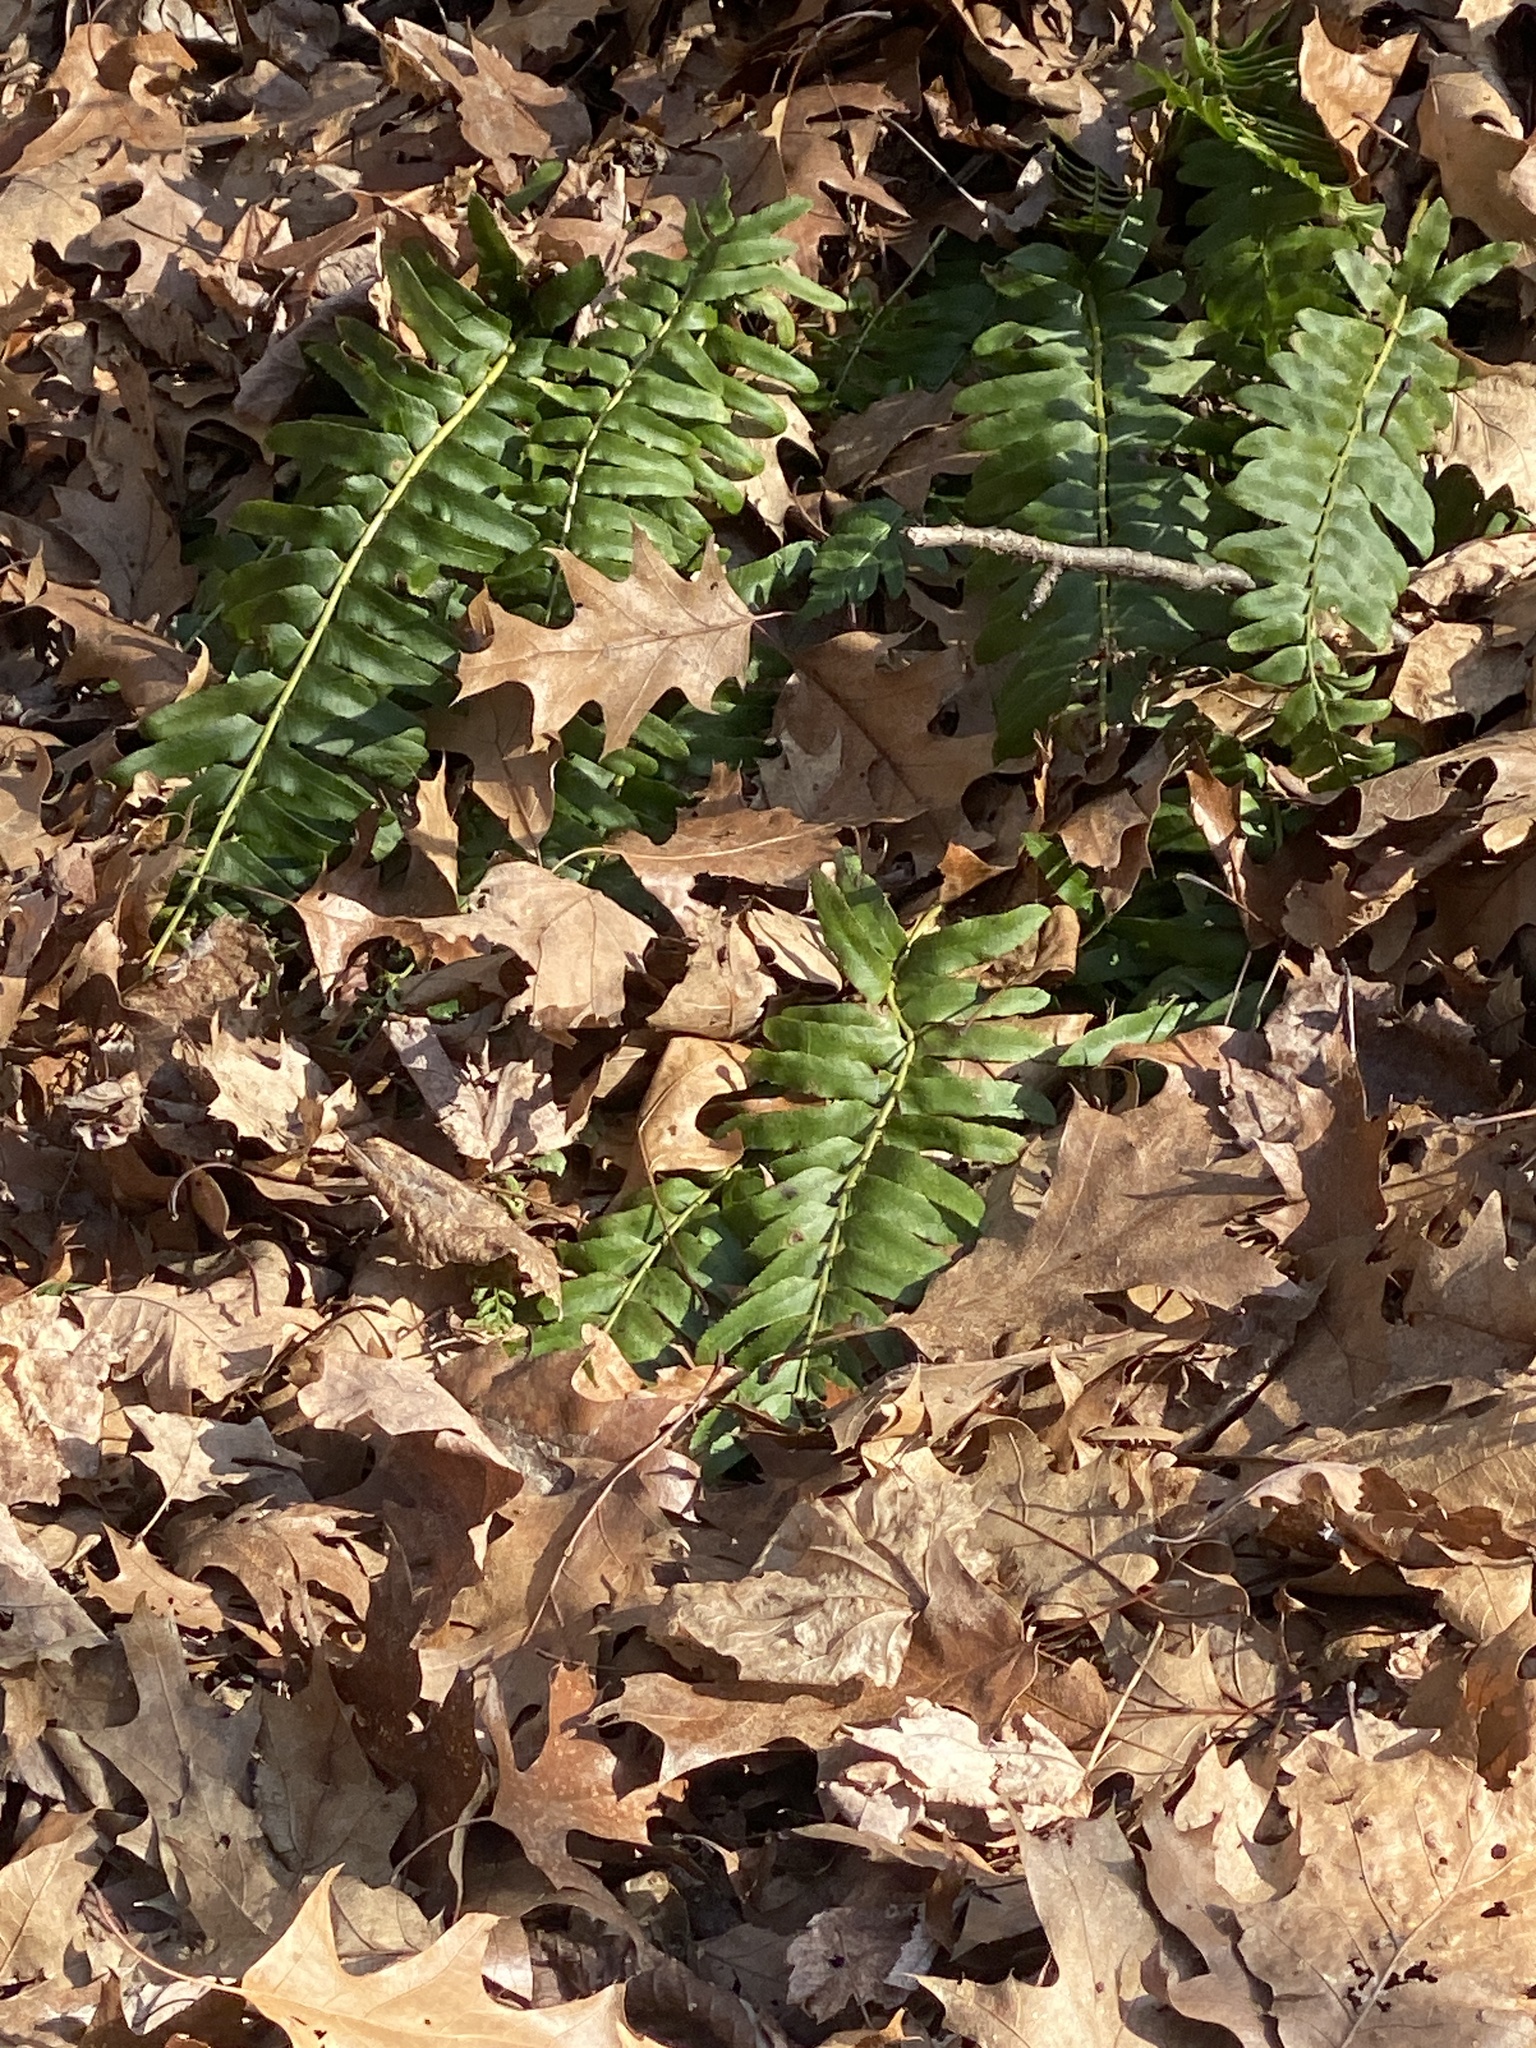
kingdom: Plantae
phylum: Tracheophyta
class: Polypodiopsida
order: Polypodiales
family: Dryopteridaceae
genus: Polystichum
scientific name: Polystichum acrostichoides
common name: Christmas fern
